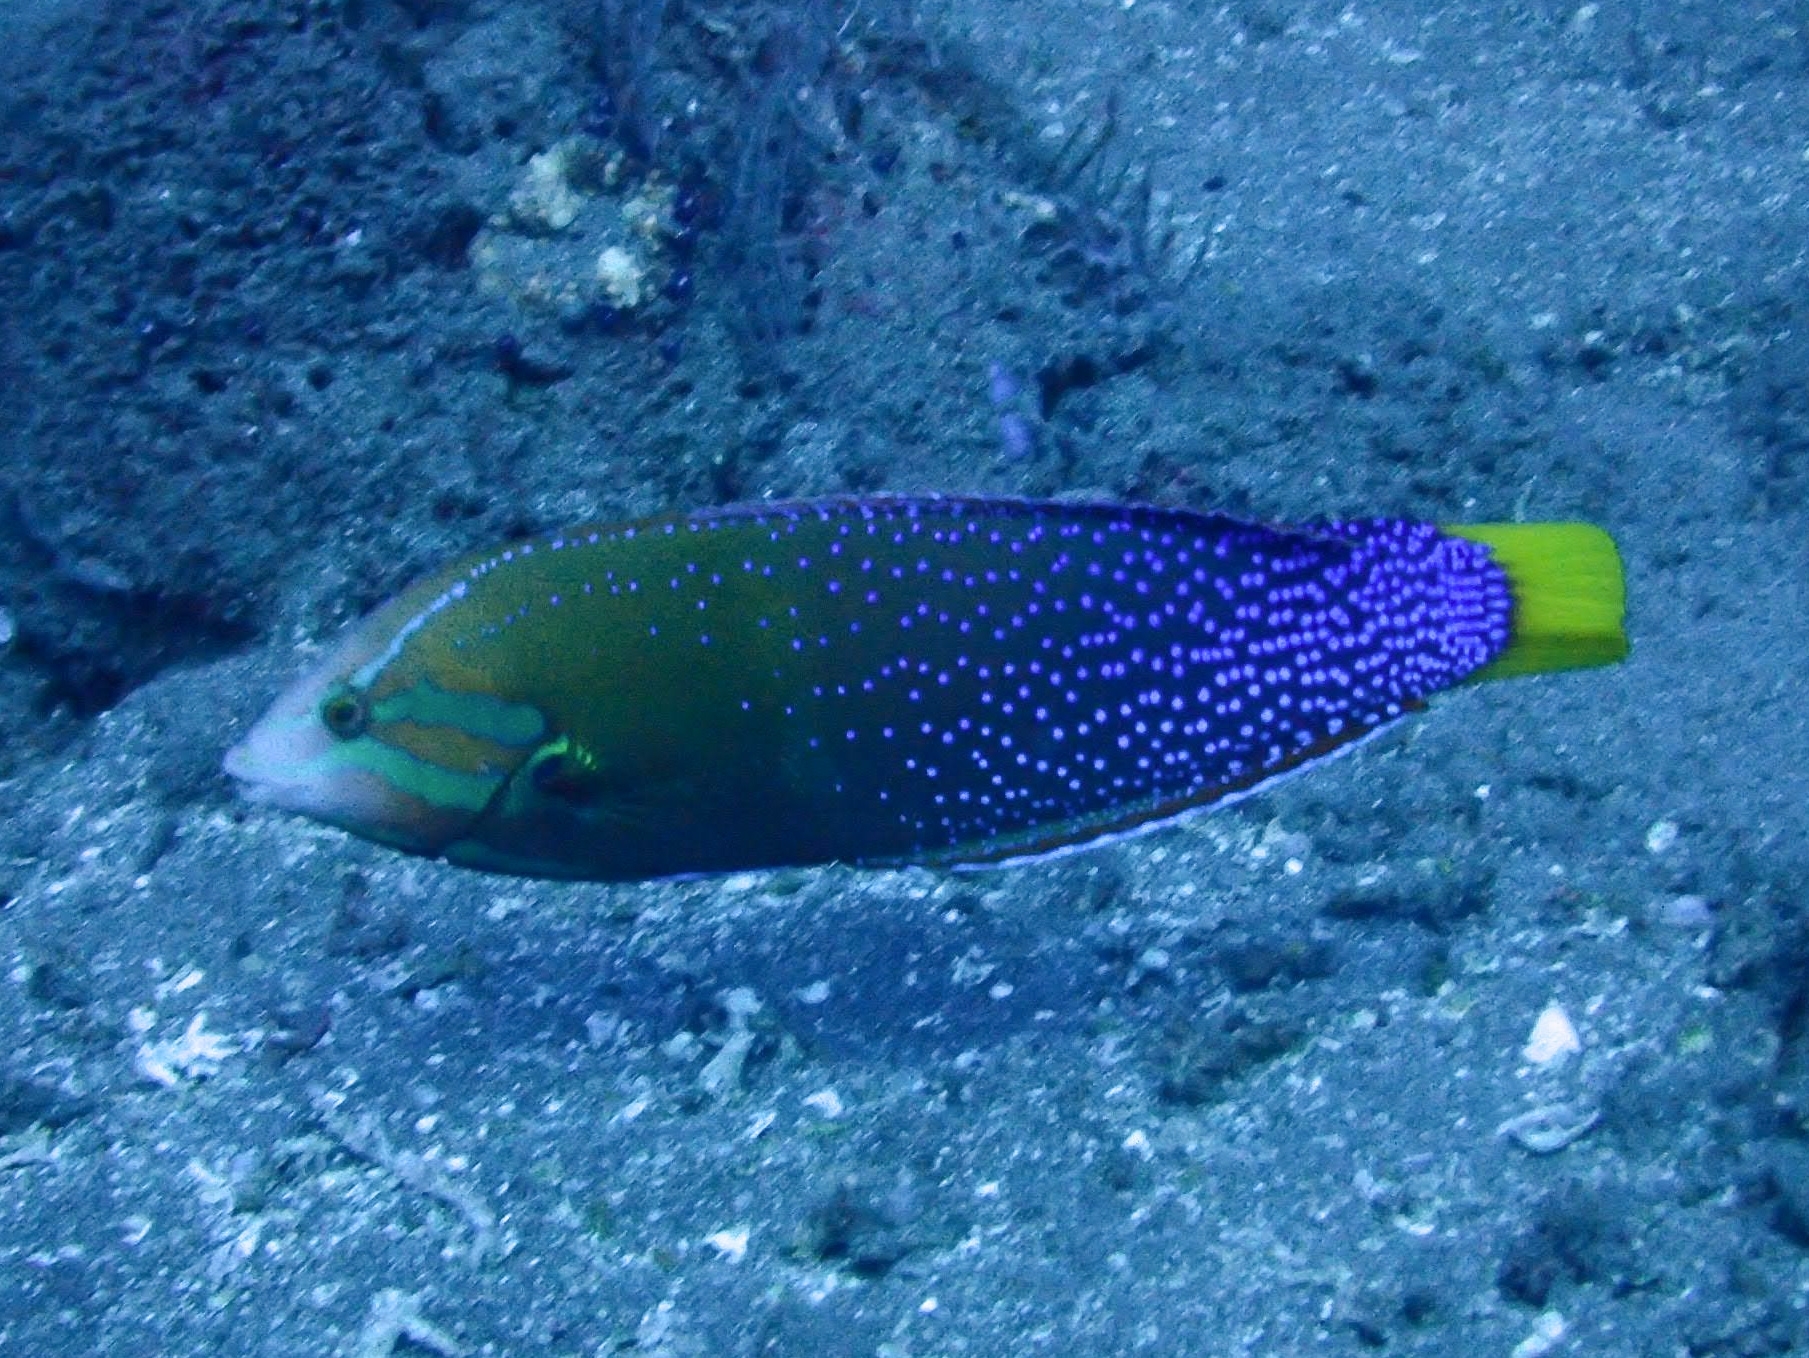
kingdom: Animalia
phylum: Chordata
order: Perciformes
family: Labridae
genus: Coris
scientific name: Coris gaimard
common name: Yellowtail coris
